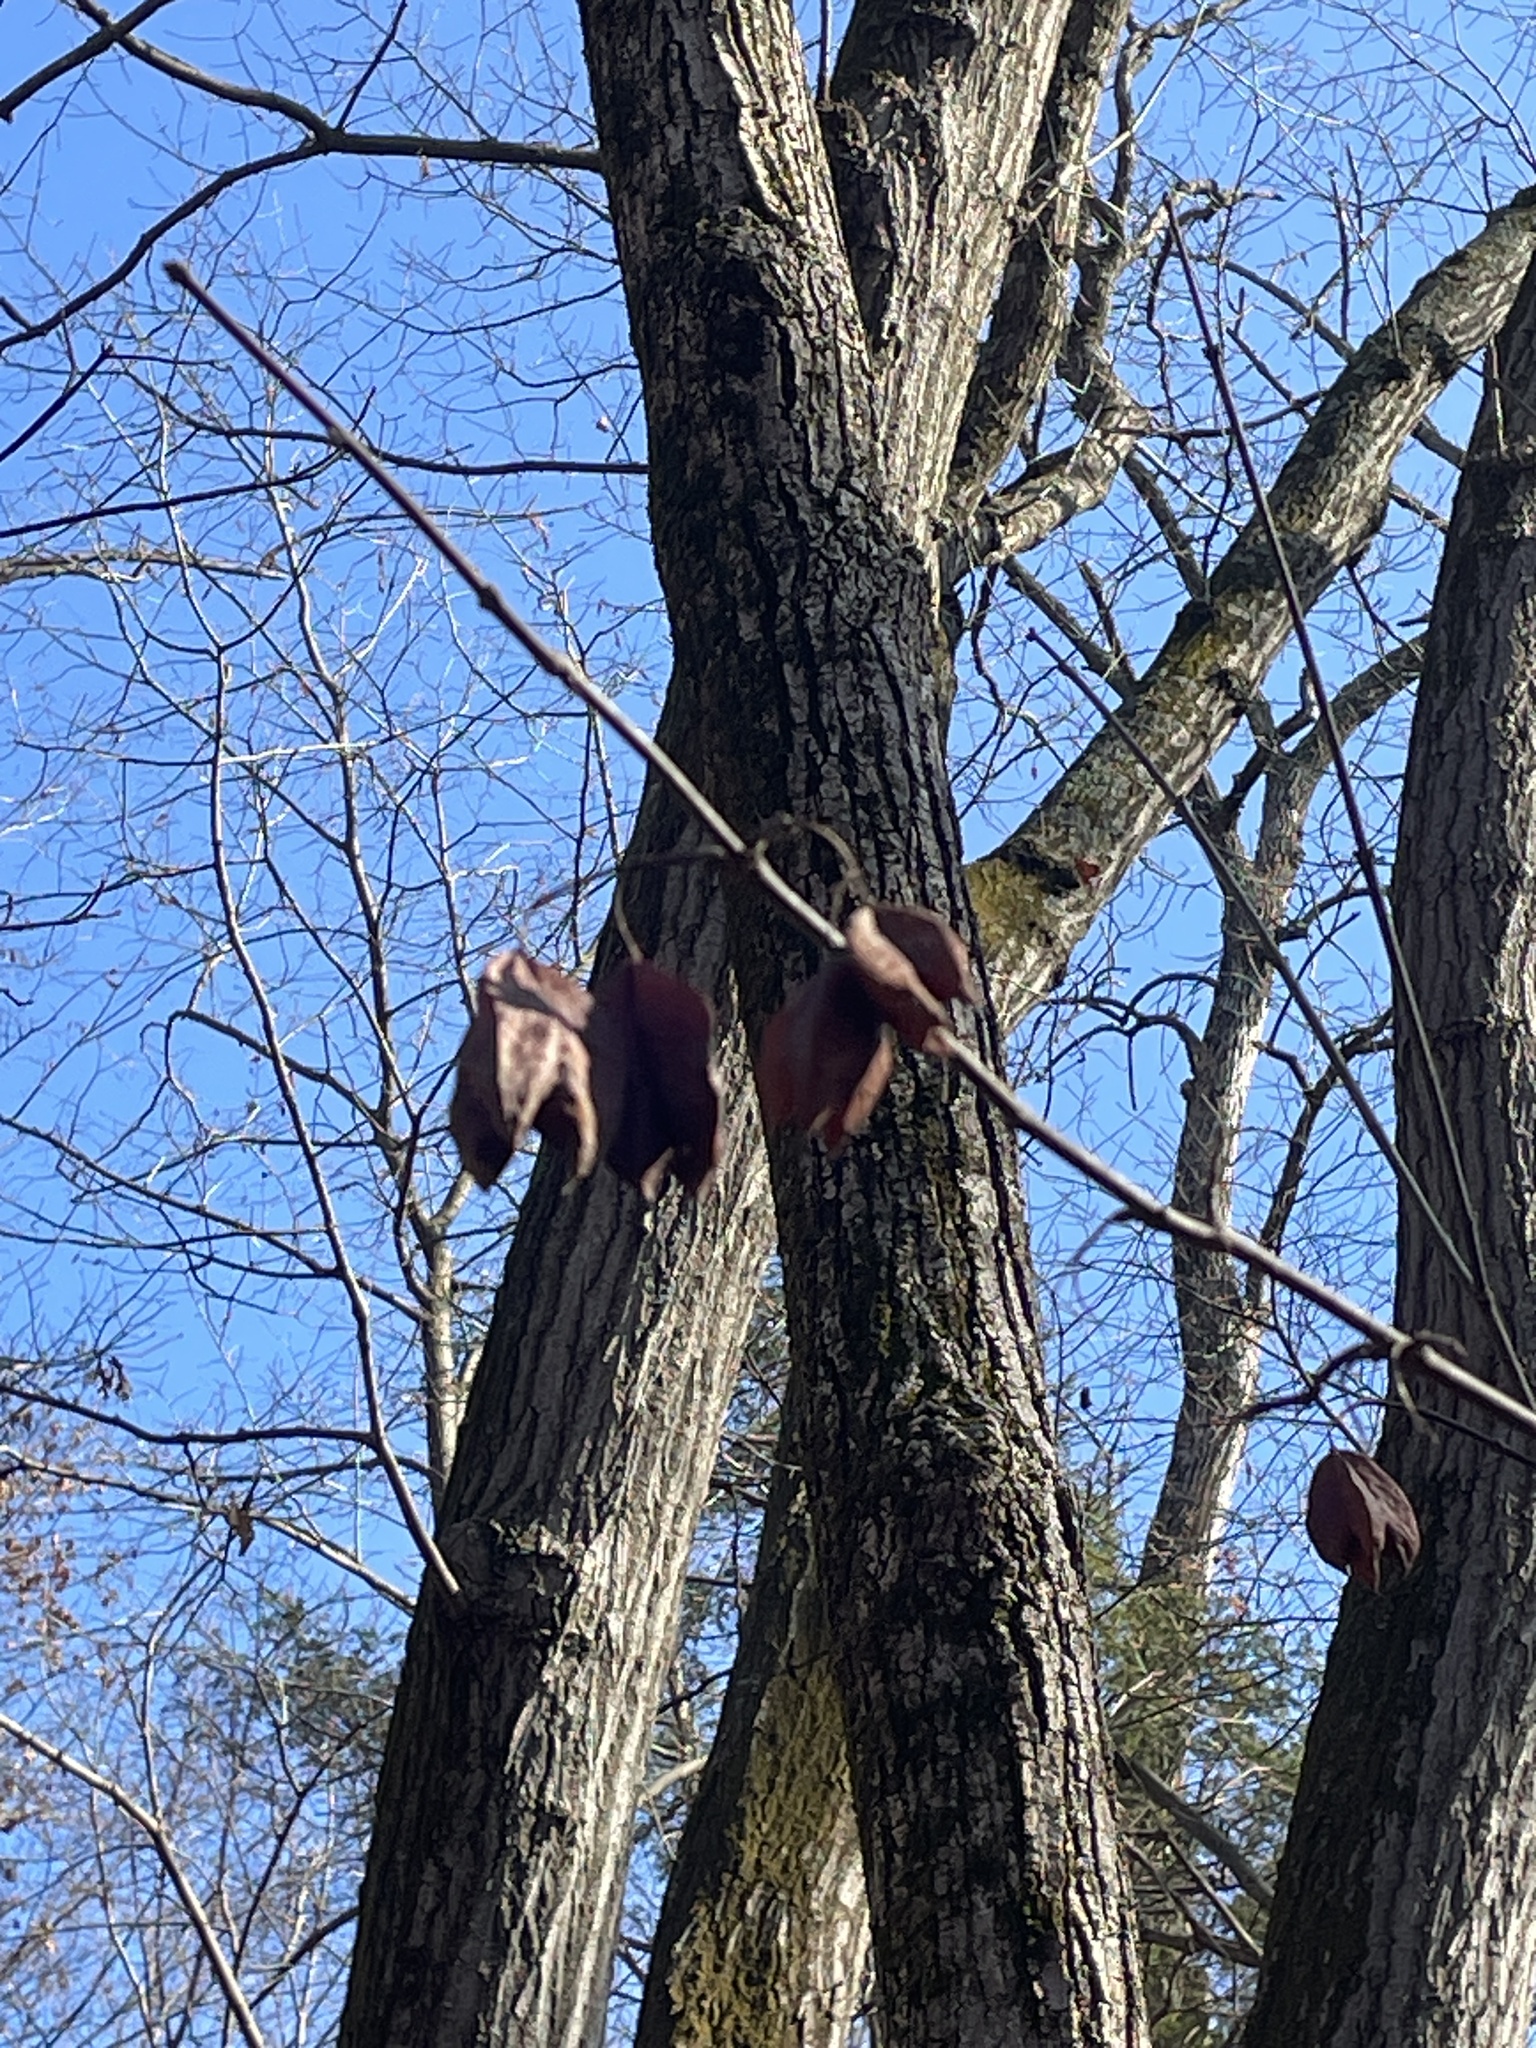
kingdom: Plantae
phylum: Tracheophyta
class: Magnoliopsida
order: Crossosomatales
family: Staphyleaceae
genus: Staphylea
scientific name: Staphylea trifolia
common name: American bladdernut
